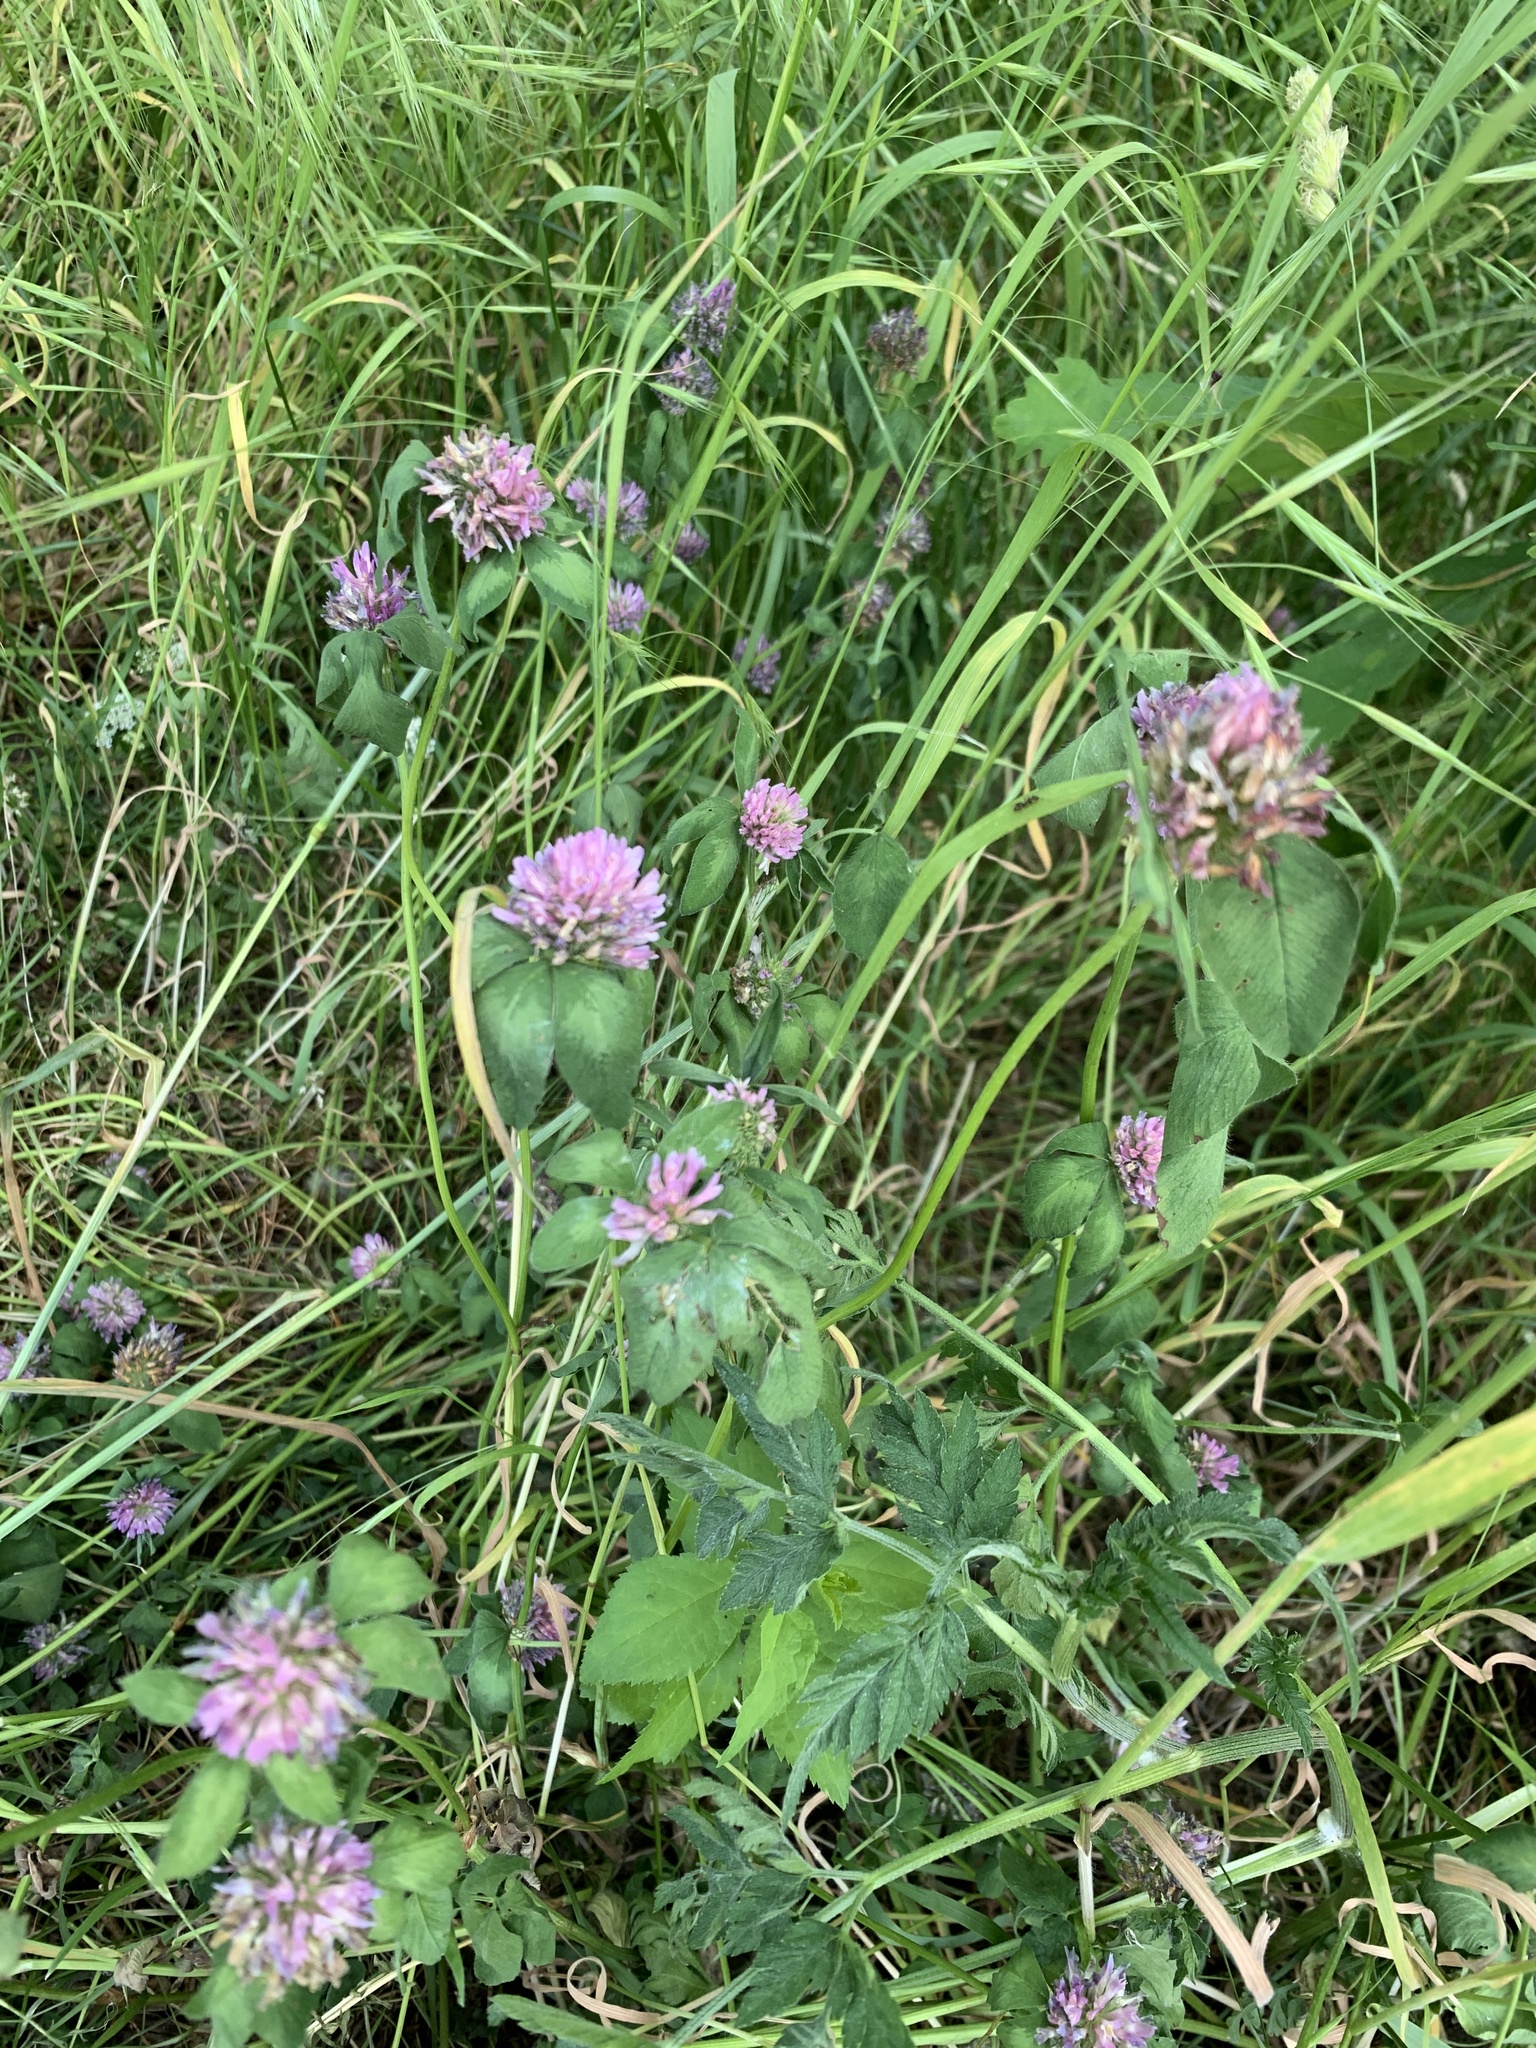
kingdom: Plantae
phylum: Tracheophyta
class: Magnoliopsida
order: Fabales
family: Fabaceae
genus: Trifolium
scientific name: Trifolium pratense
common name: Red clover
